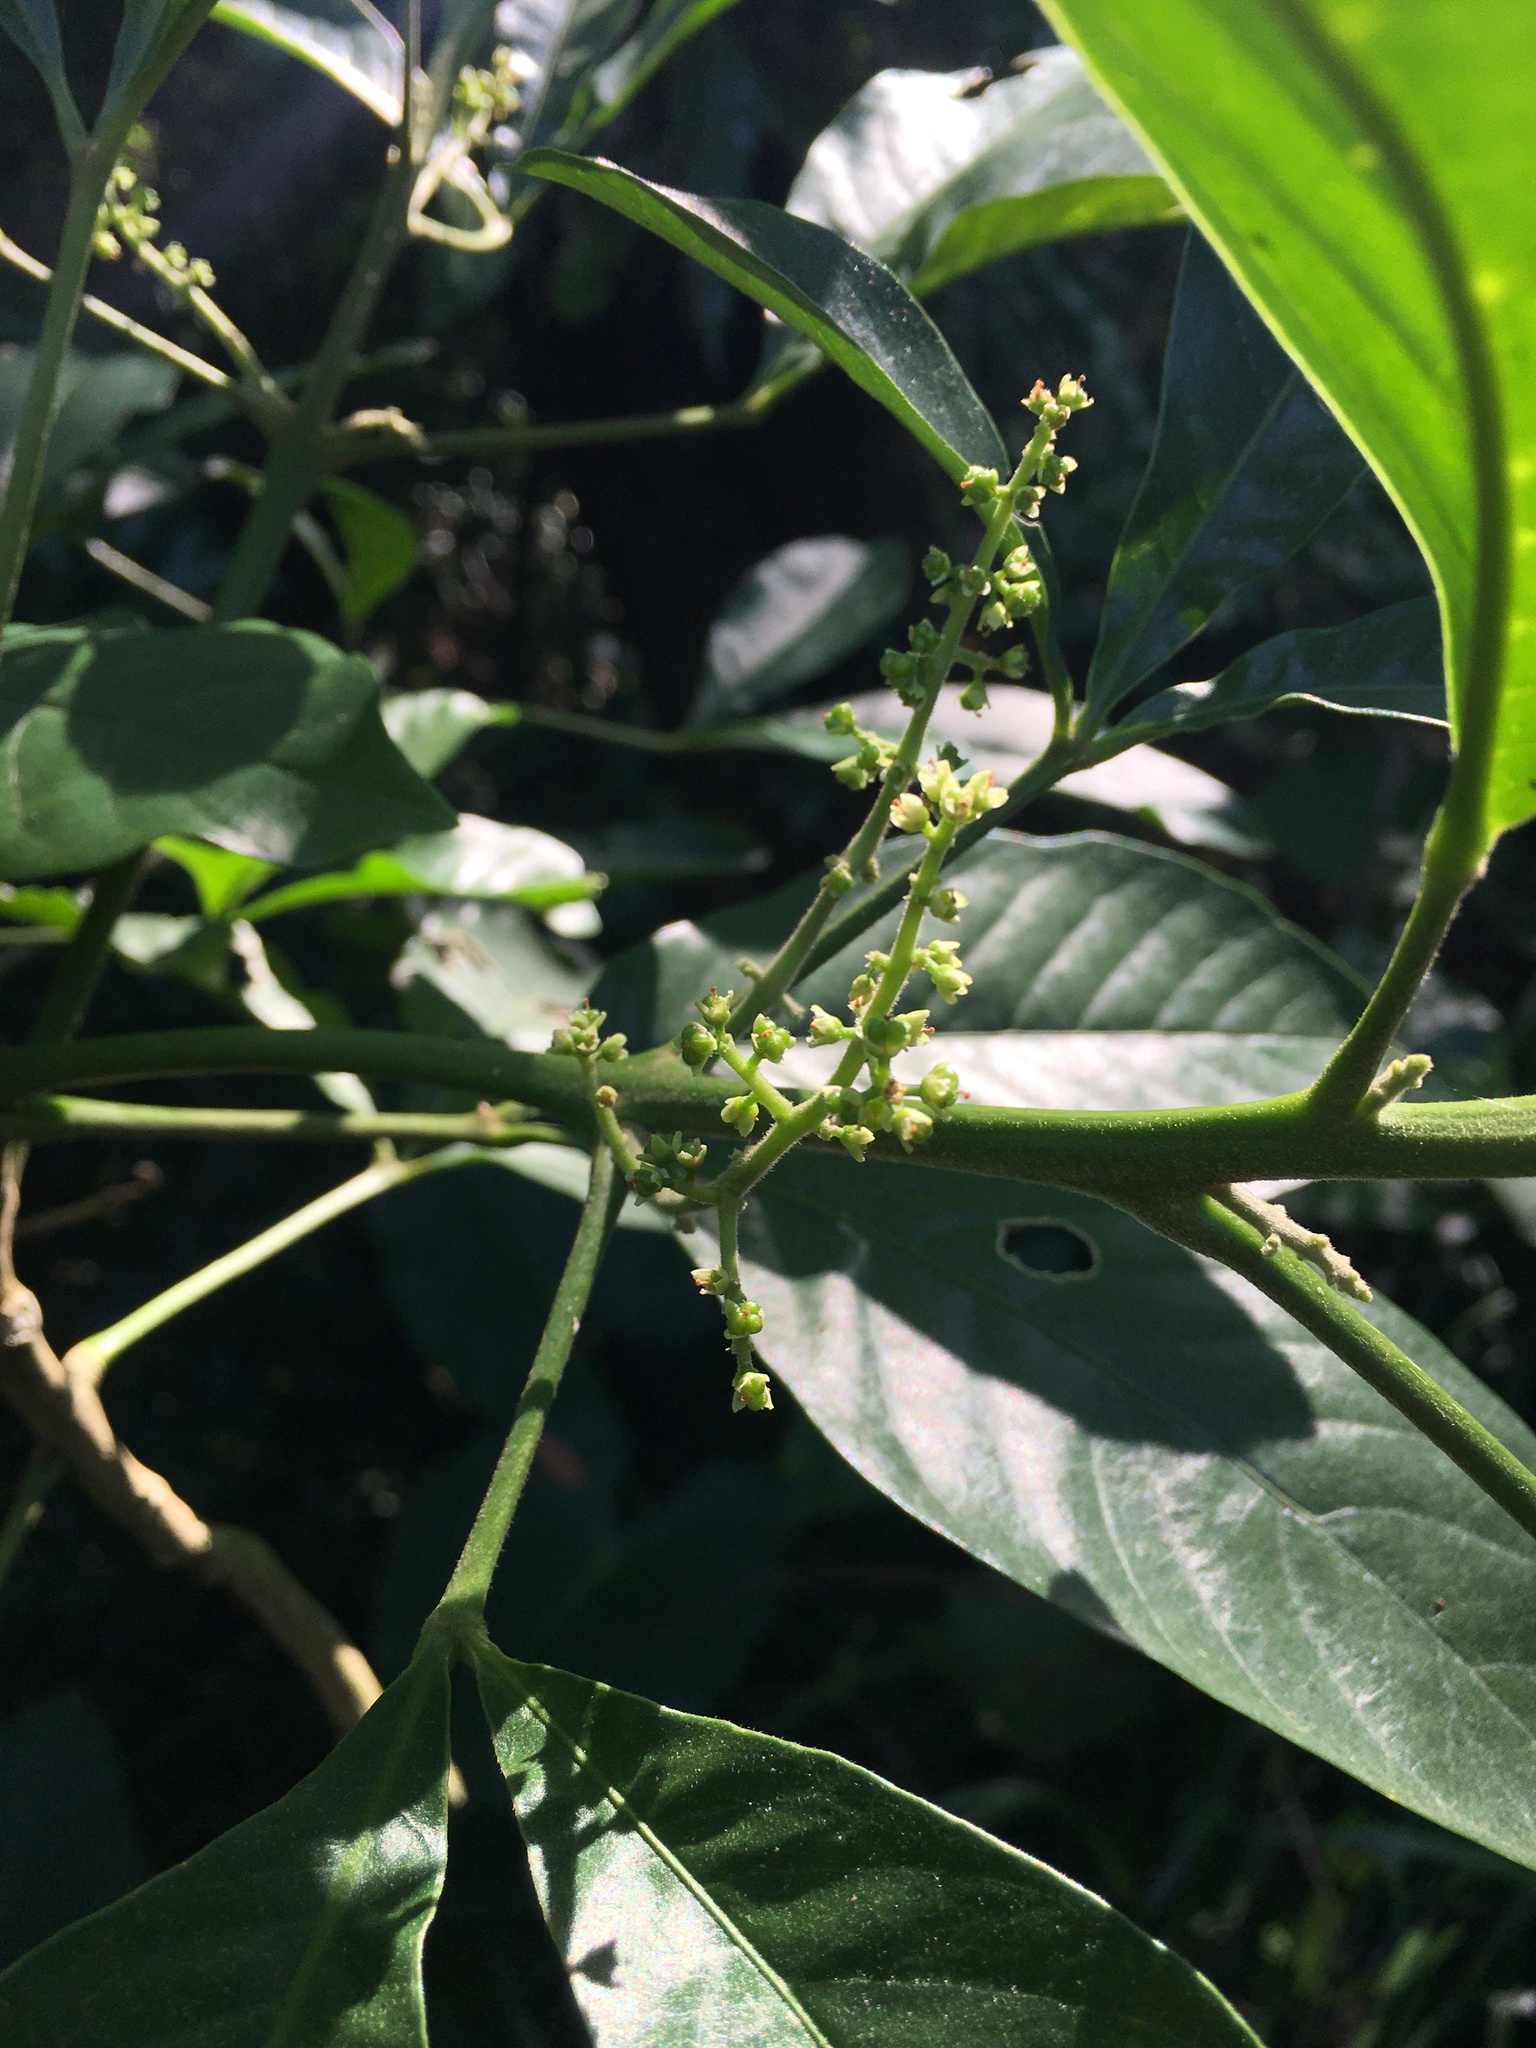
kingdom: Plantae
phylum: Tracheophyta
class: Magnoliopsida
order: Sapindales
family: Rutaceae
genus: Melicope
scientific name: Melicope semecarpifolia
